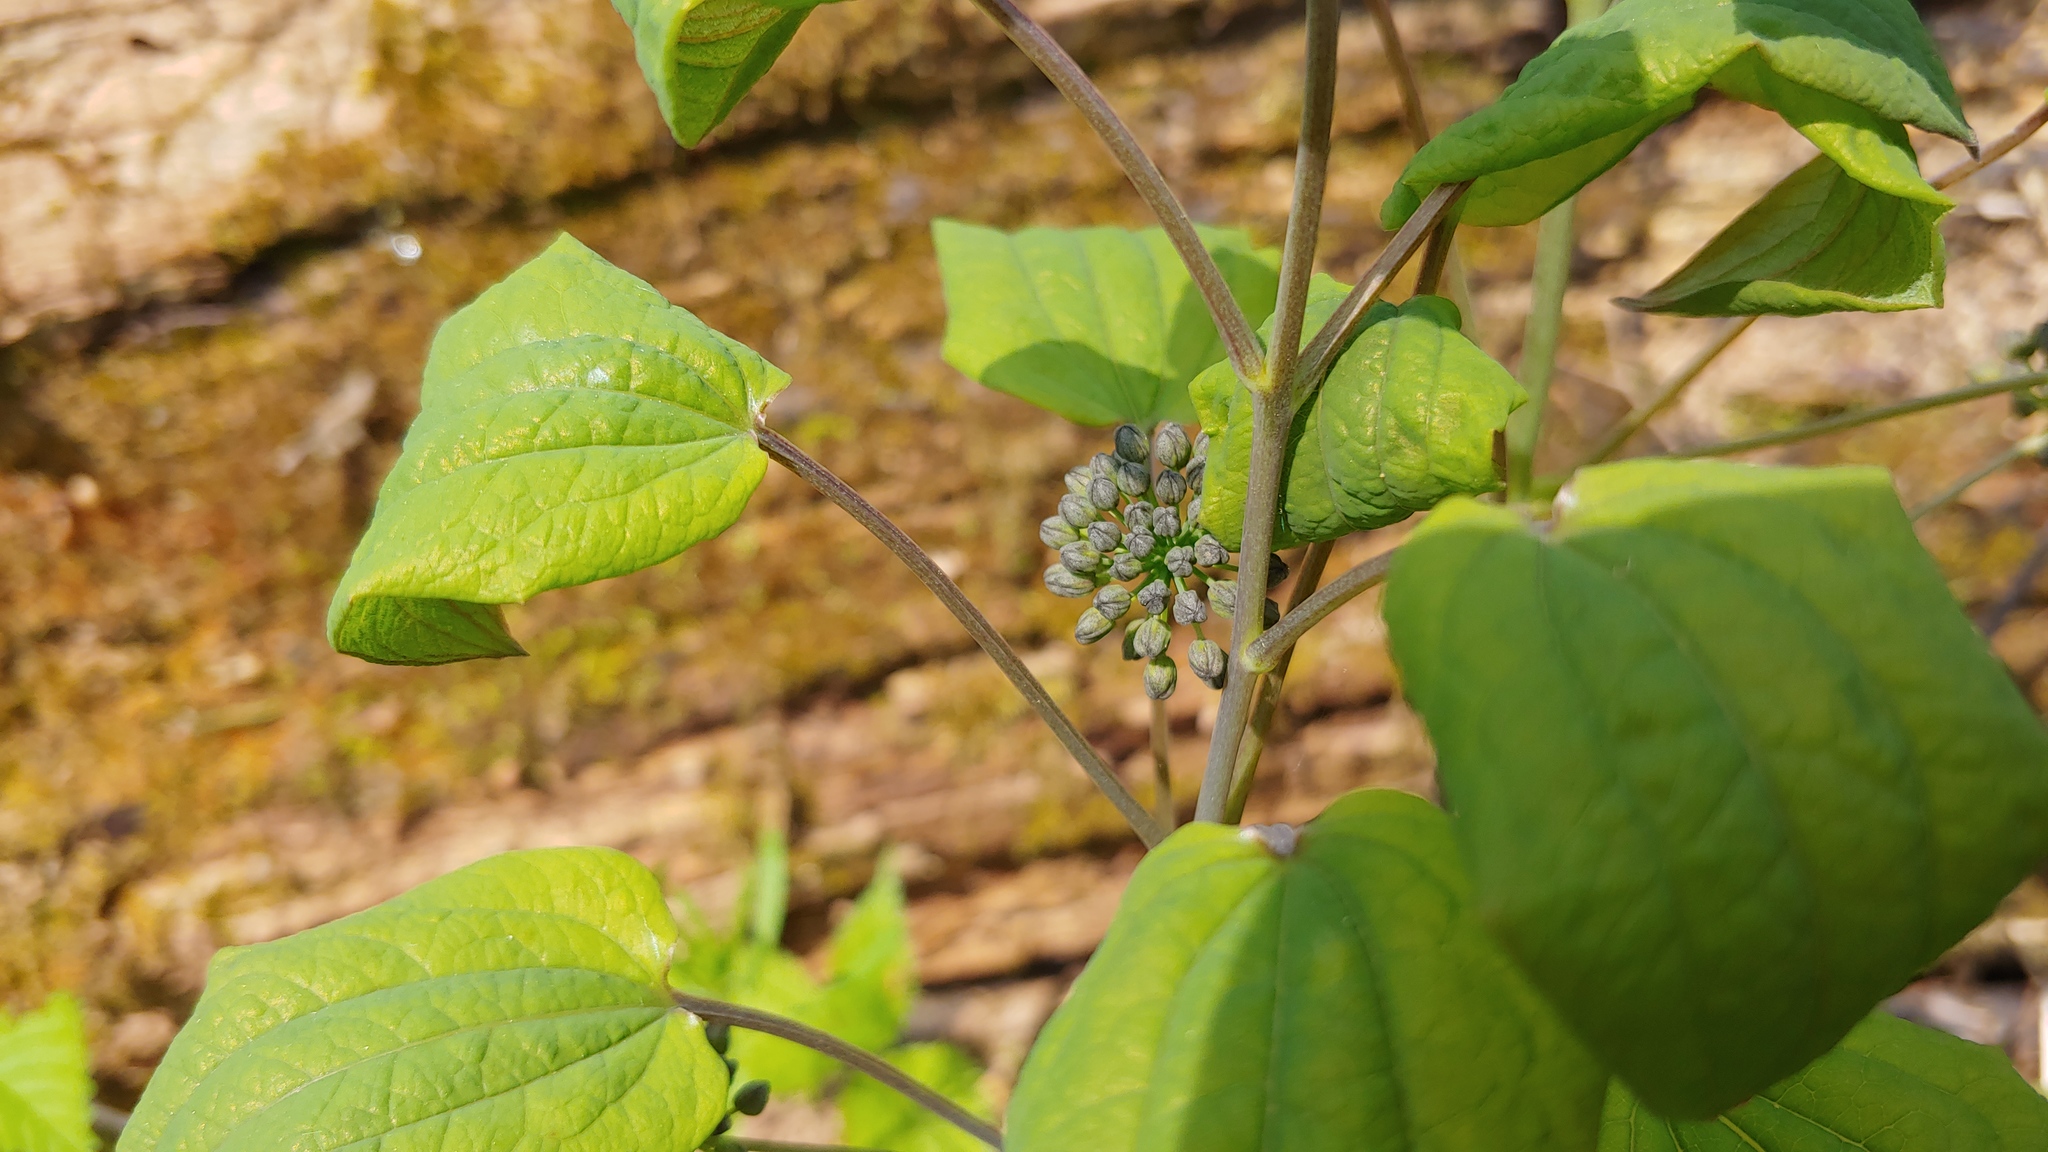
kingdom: Plantae
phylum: Tracheophyta
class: Liliopsida
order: Liliales
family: Smilacaceae
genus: Smilax
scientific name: Smilax illinoensis
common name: Illinois carrionflower
